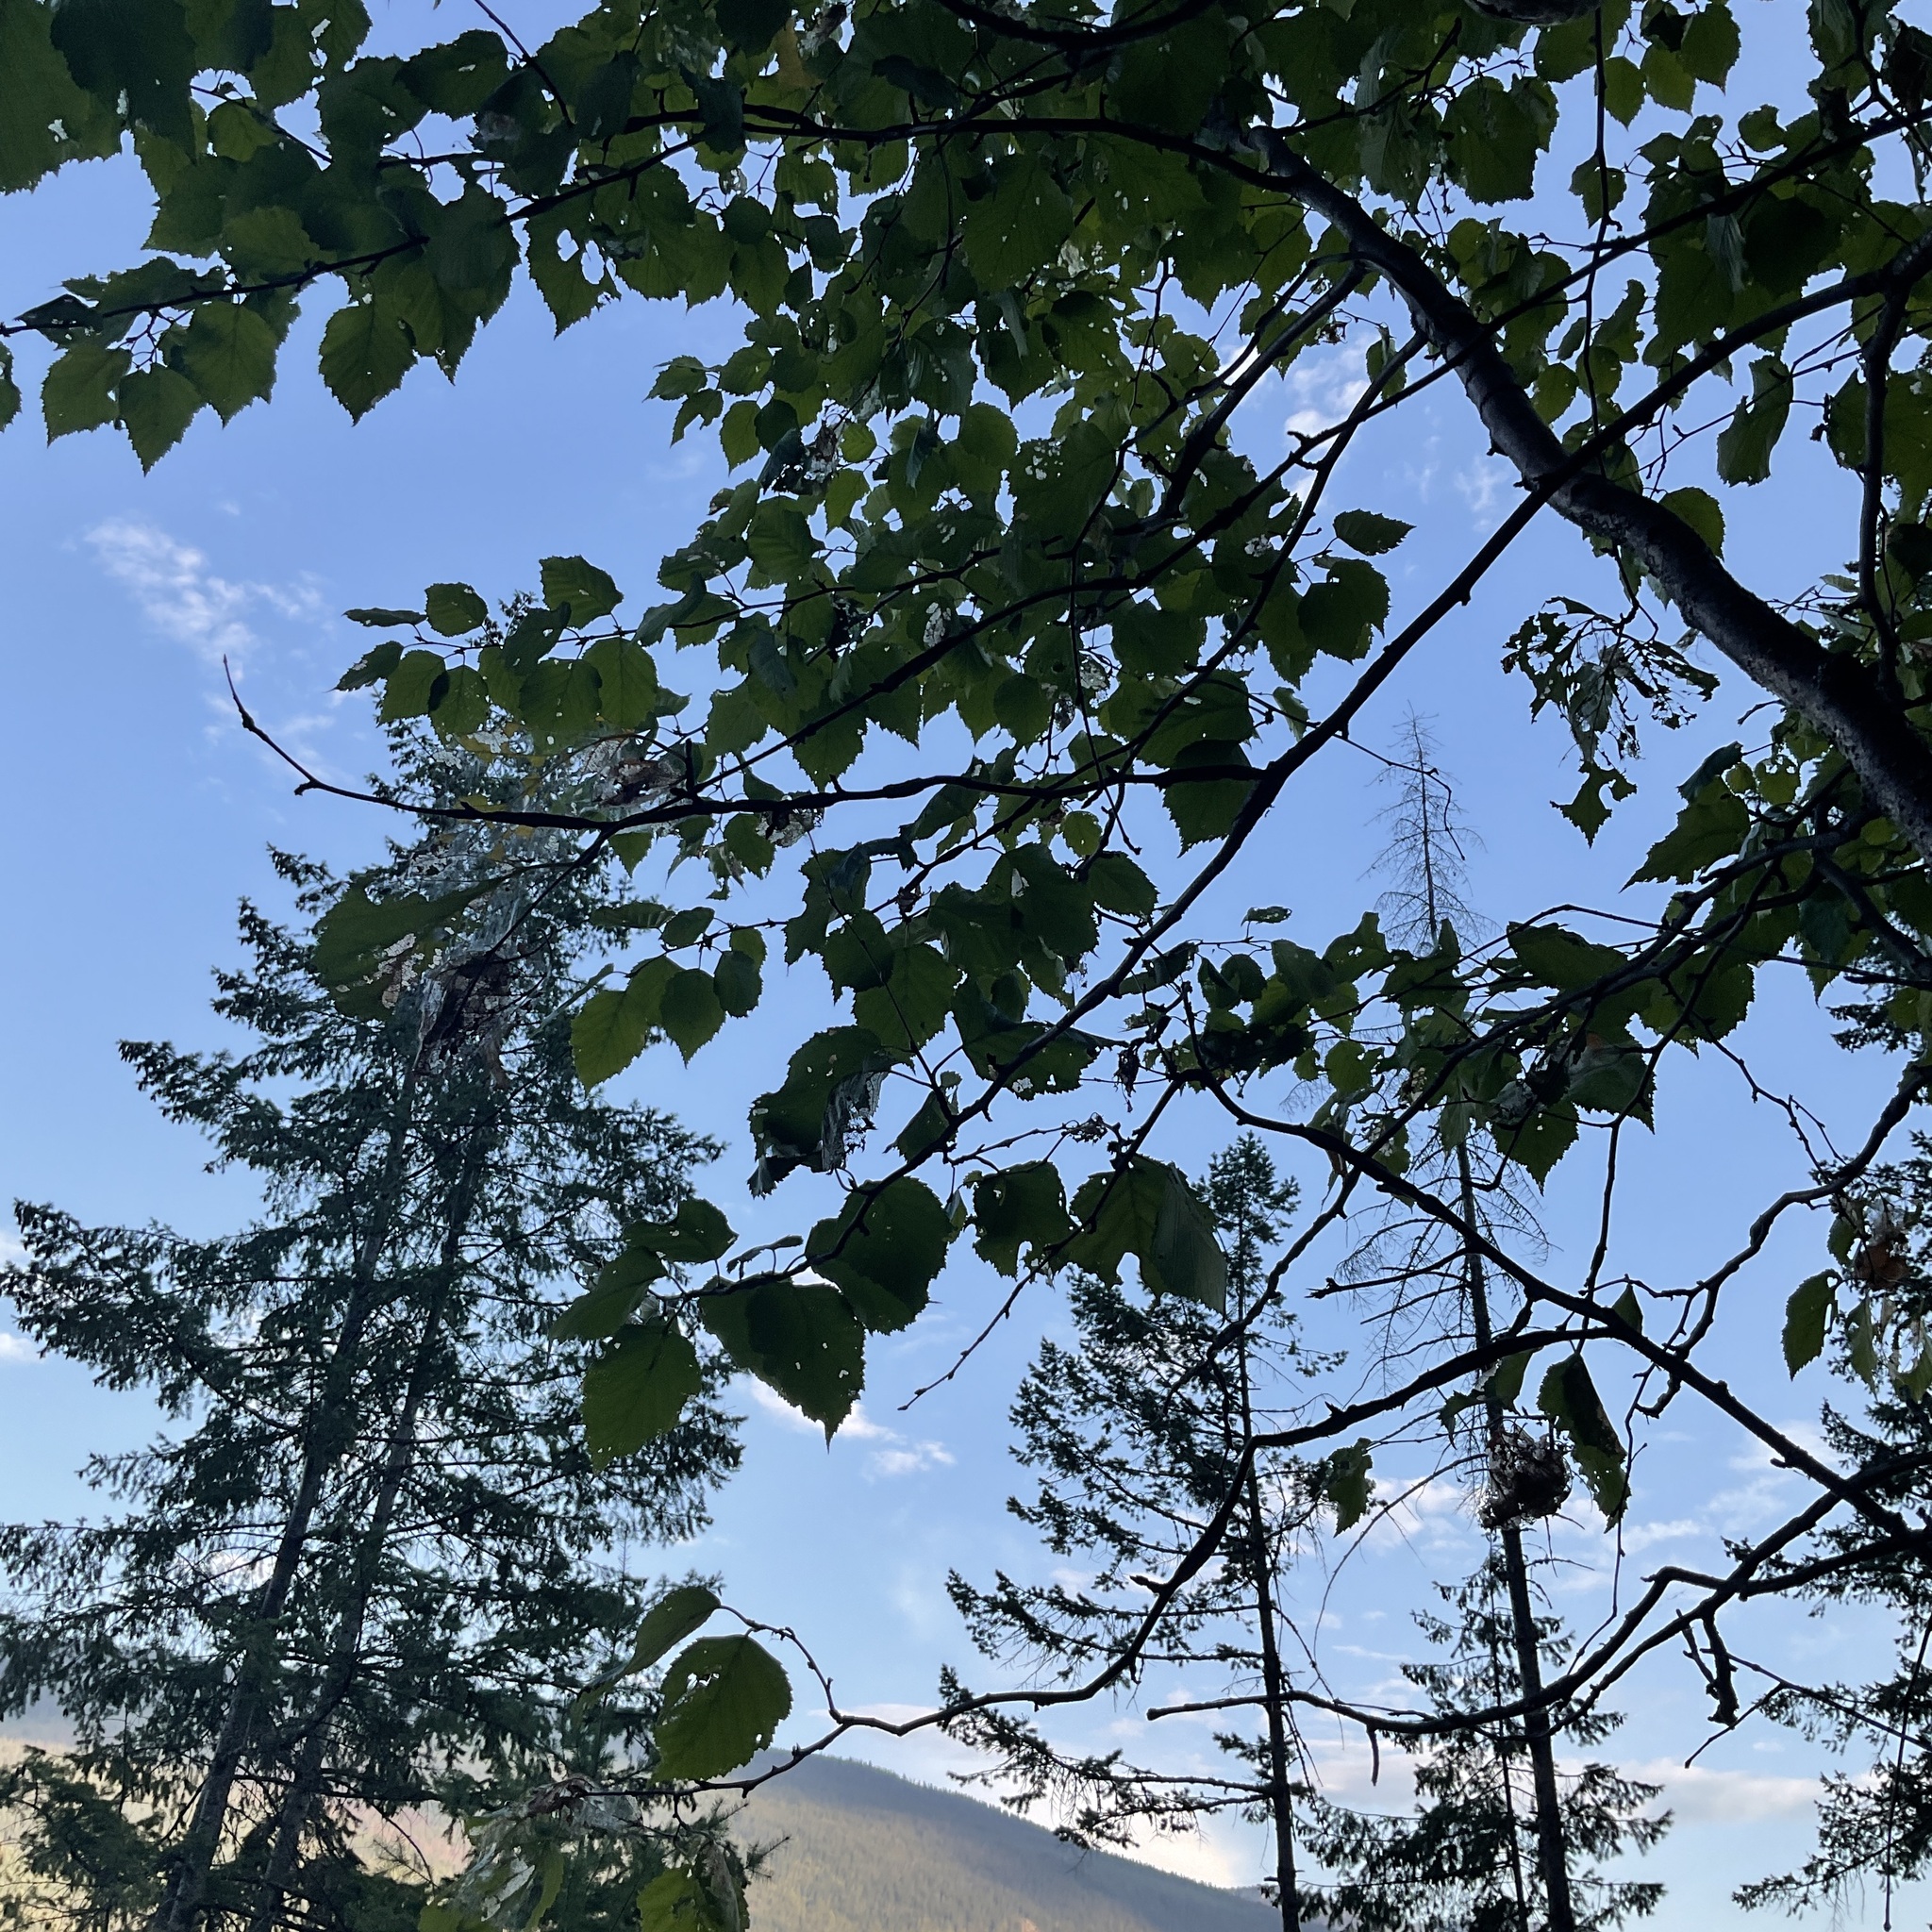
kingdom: Plantae
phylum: Tracheophyta
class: Magnoliopsida
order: Fagales
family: Betulaceae
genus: Betula
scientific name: Betula papyrifera
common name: Paper birch
